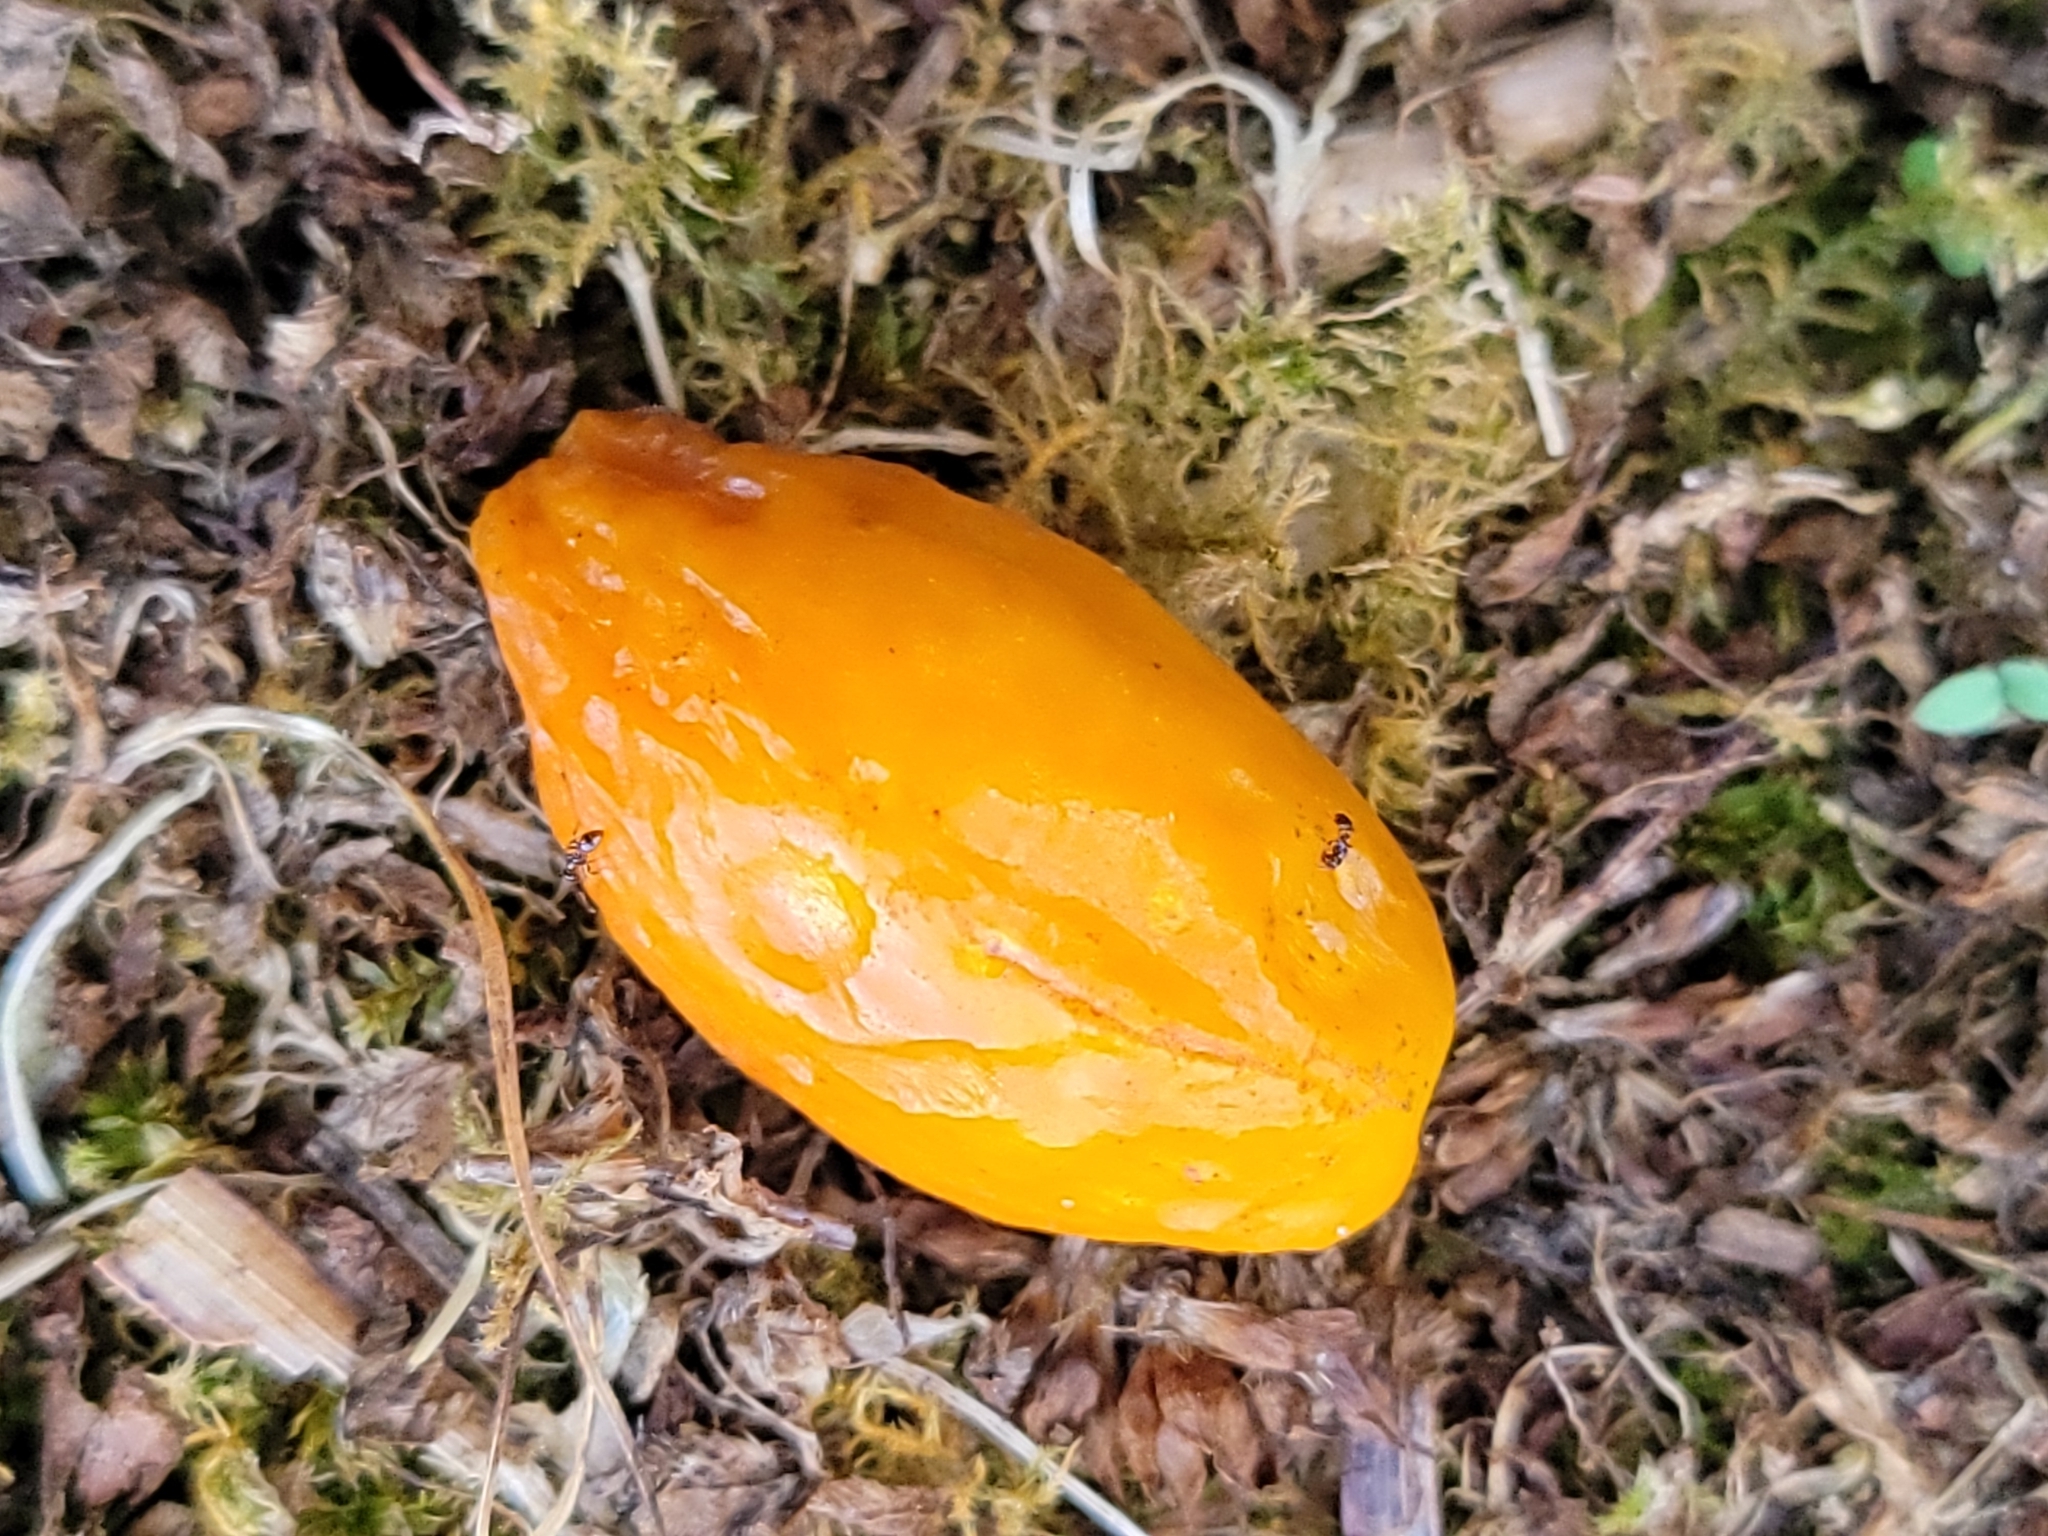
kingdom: Plantae
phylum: Tracheophyta
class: Magnoliopsida
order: Cucurbitales
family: Corynocarpaceae
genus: Corynocarpus
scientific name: Corynocarpus laevigatus
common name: New zealand laurel
